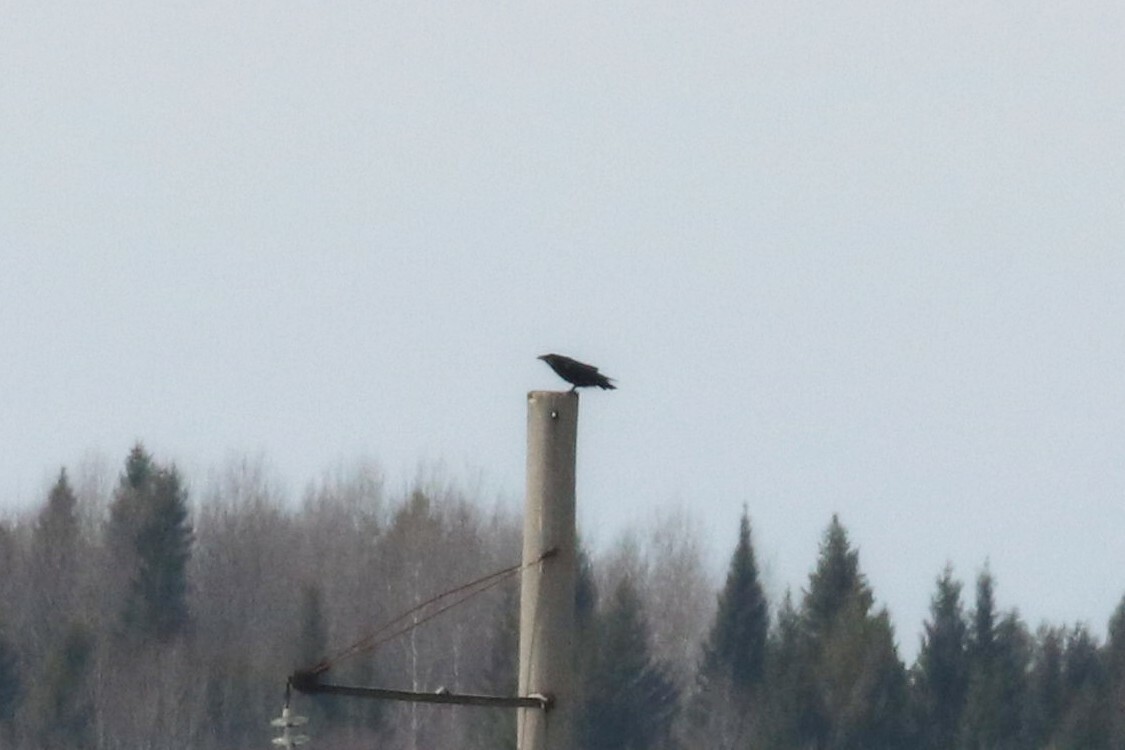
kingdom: Animalia
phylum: Chordata
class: Aves
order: Passeriformes
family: Corvidae
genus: Corvus
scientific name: Corvus corax
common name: Common raven
